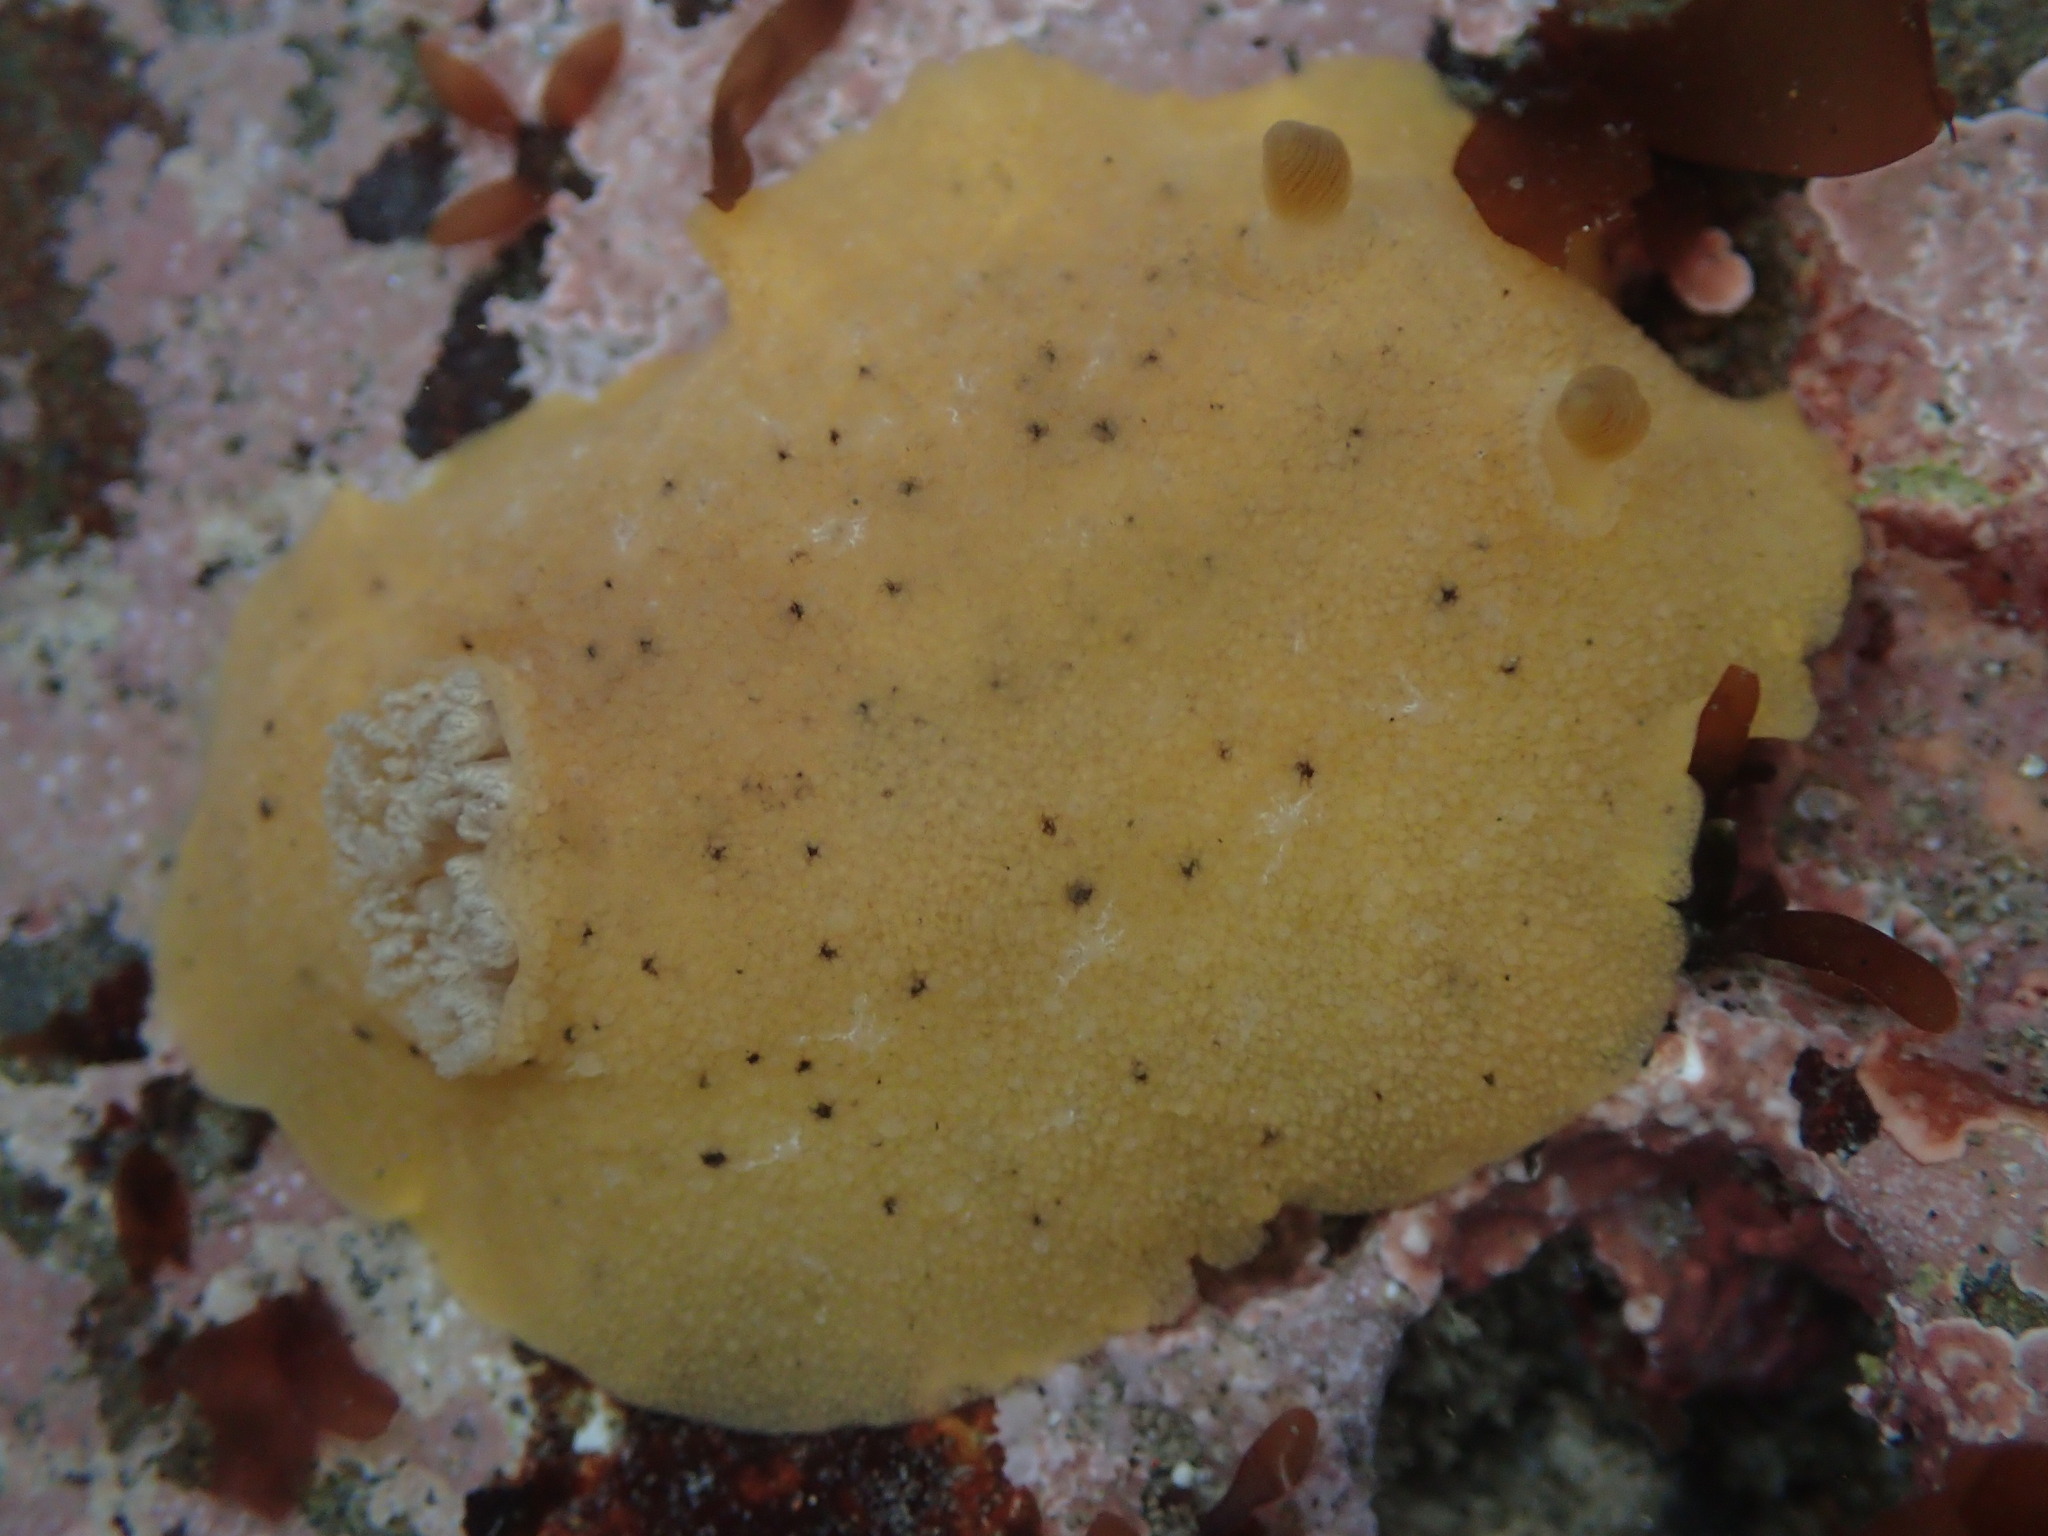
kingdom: Animalia
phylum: Mollusca
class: Gastropoda
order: Nudibranchia
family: Discodorididae
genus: Geitodoris
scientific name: Geitodoris heathi
